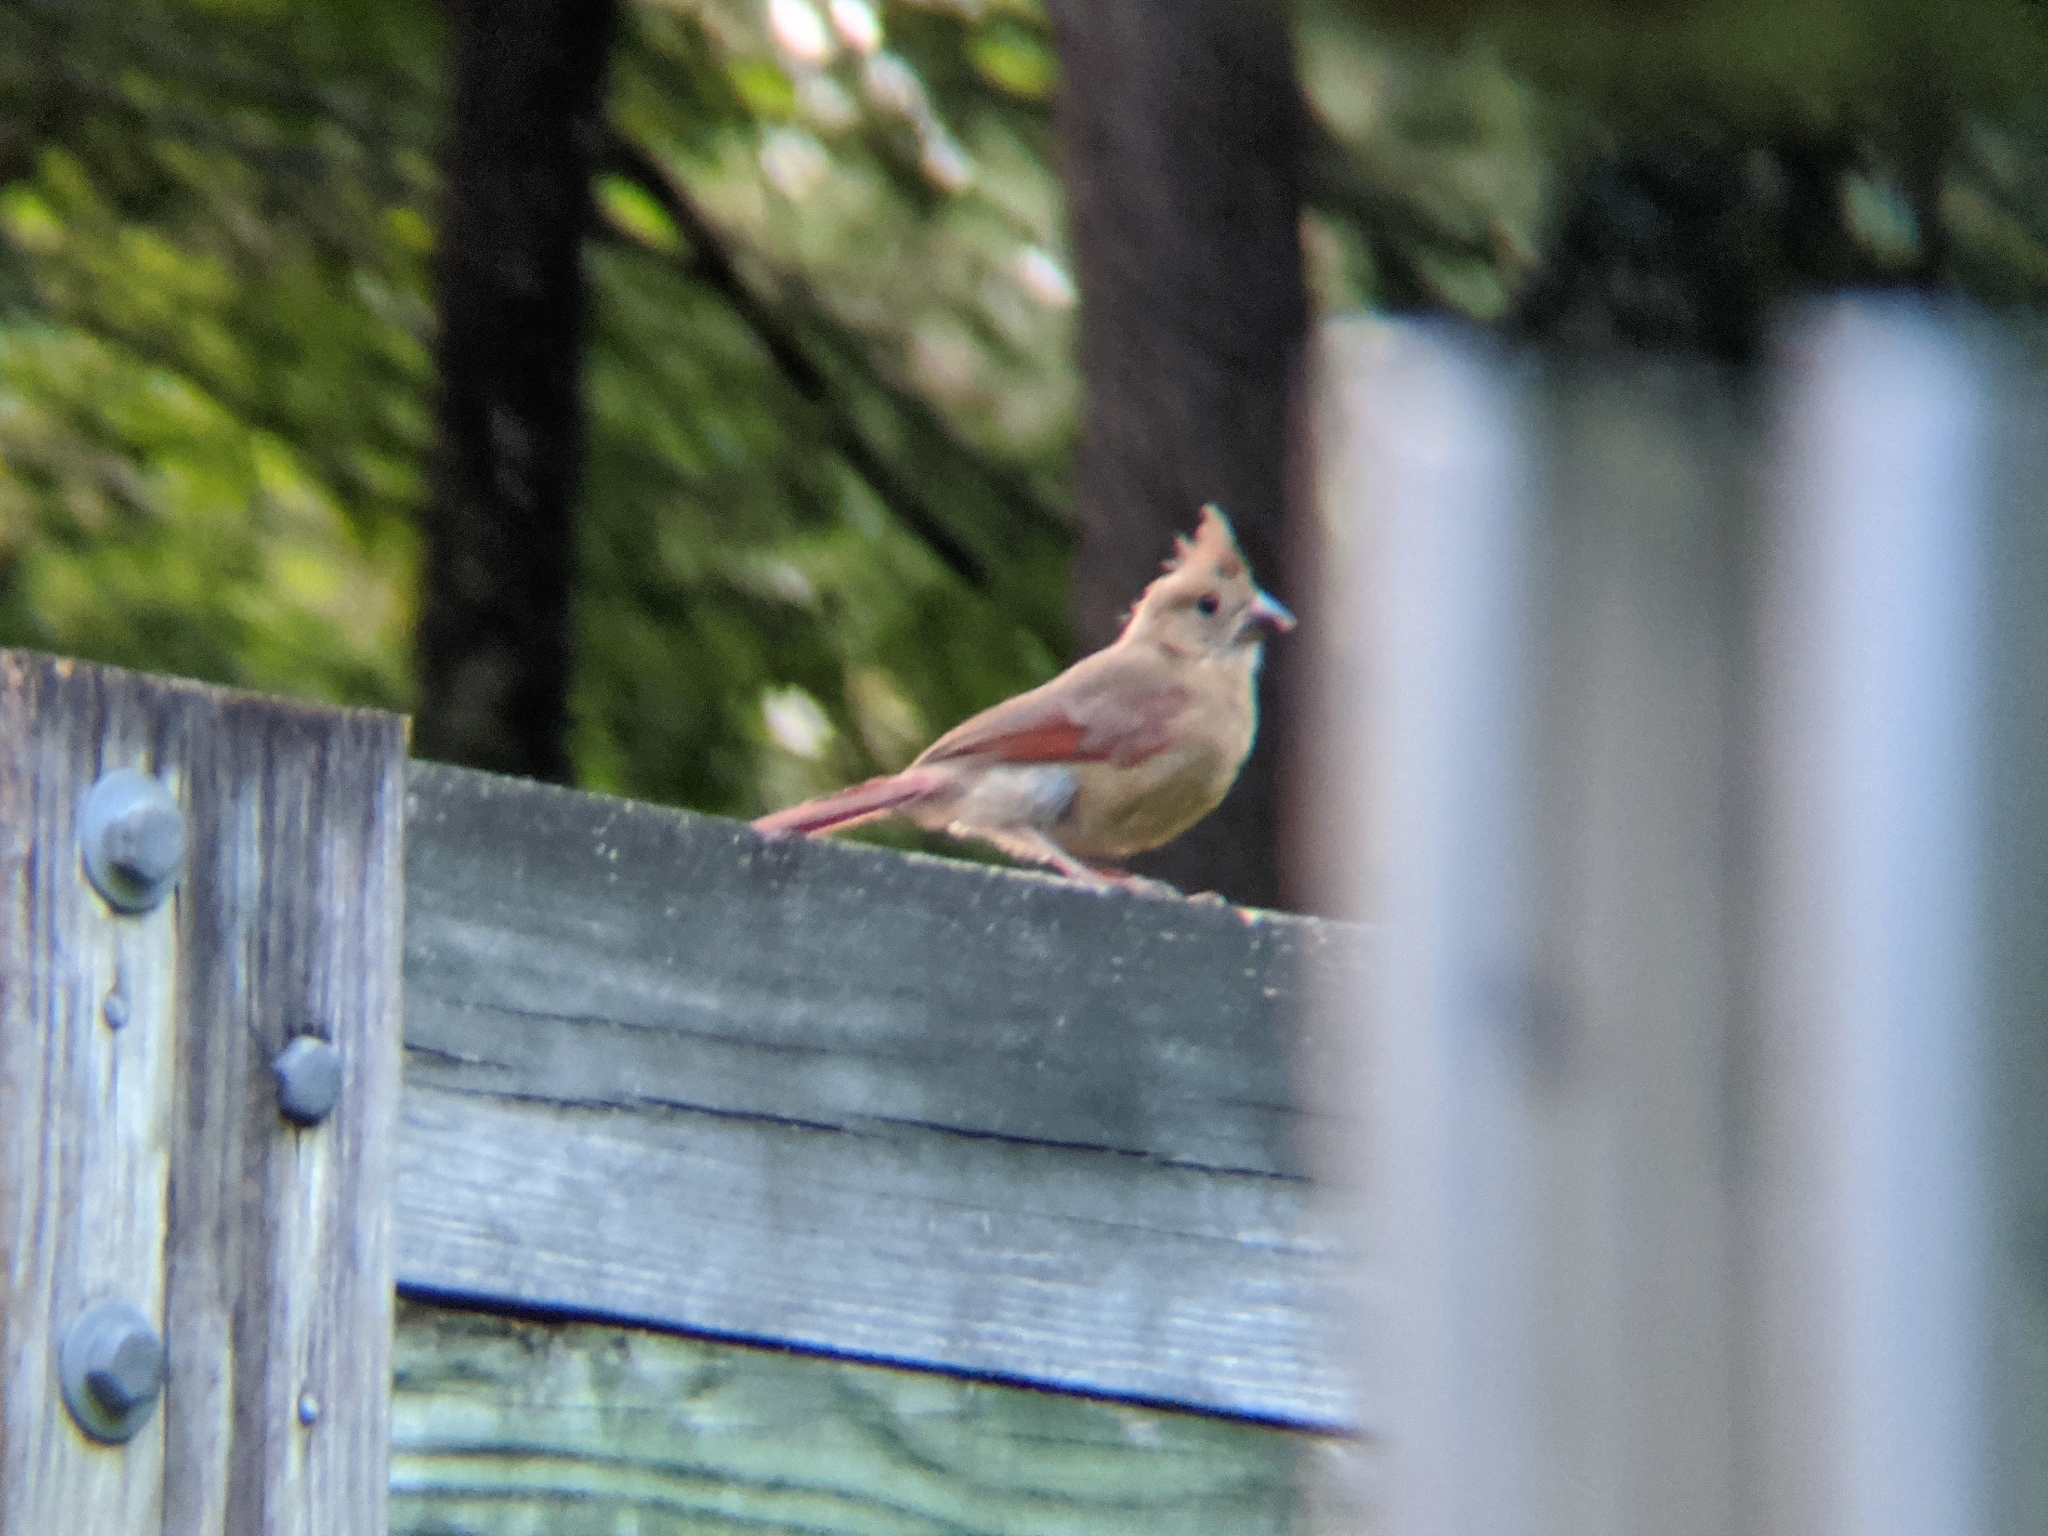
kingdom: Animalia
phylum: Chordata
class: Aves
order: Passeriformes
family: Cardinalidae
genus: Cardinalis
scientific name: Cardinalis cardinalis
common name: Northern cardinal
